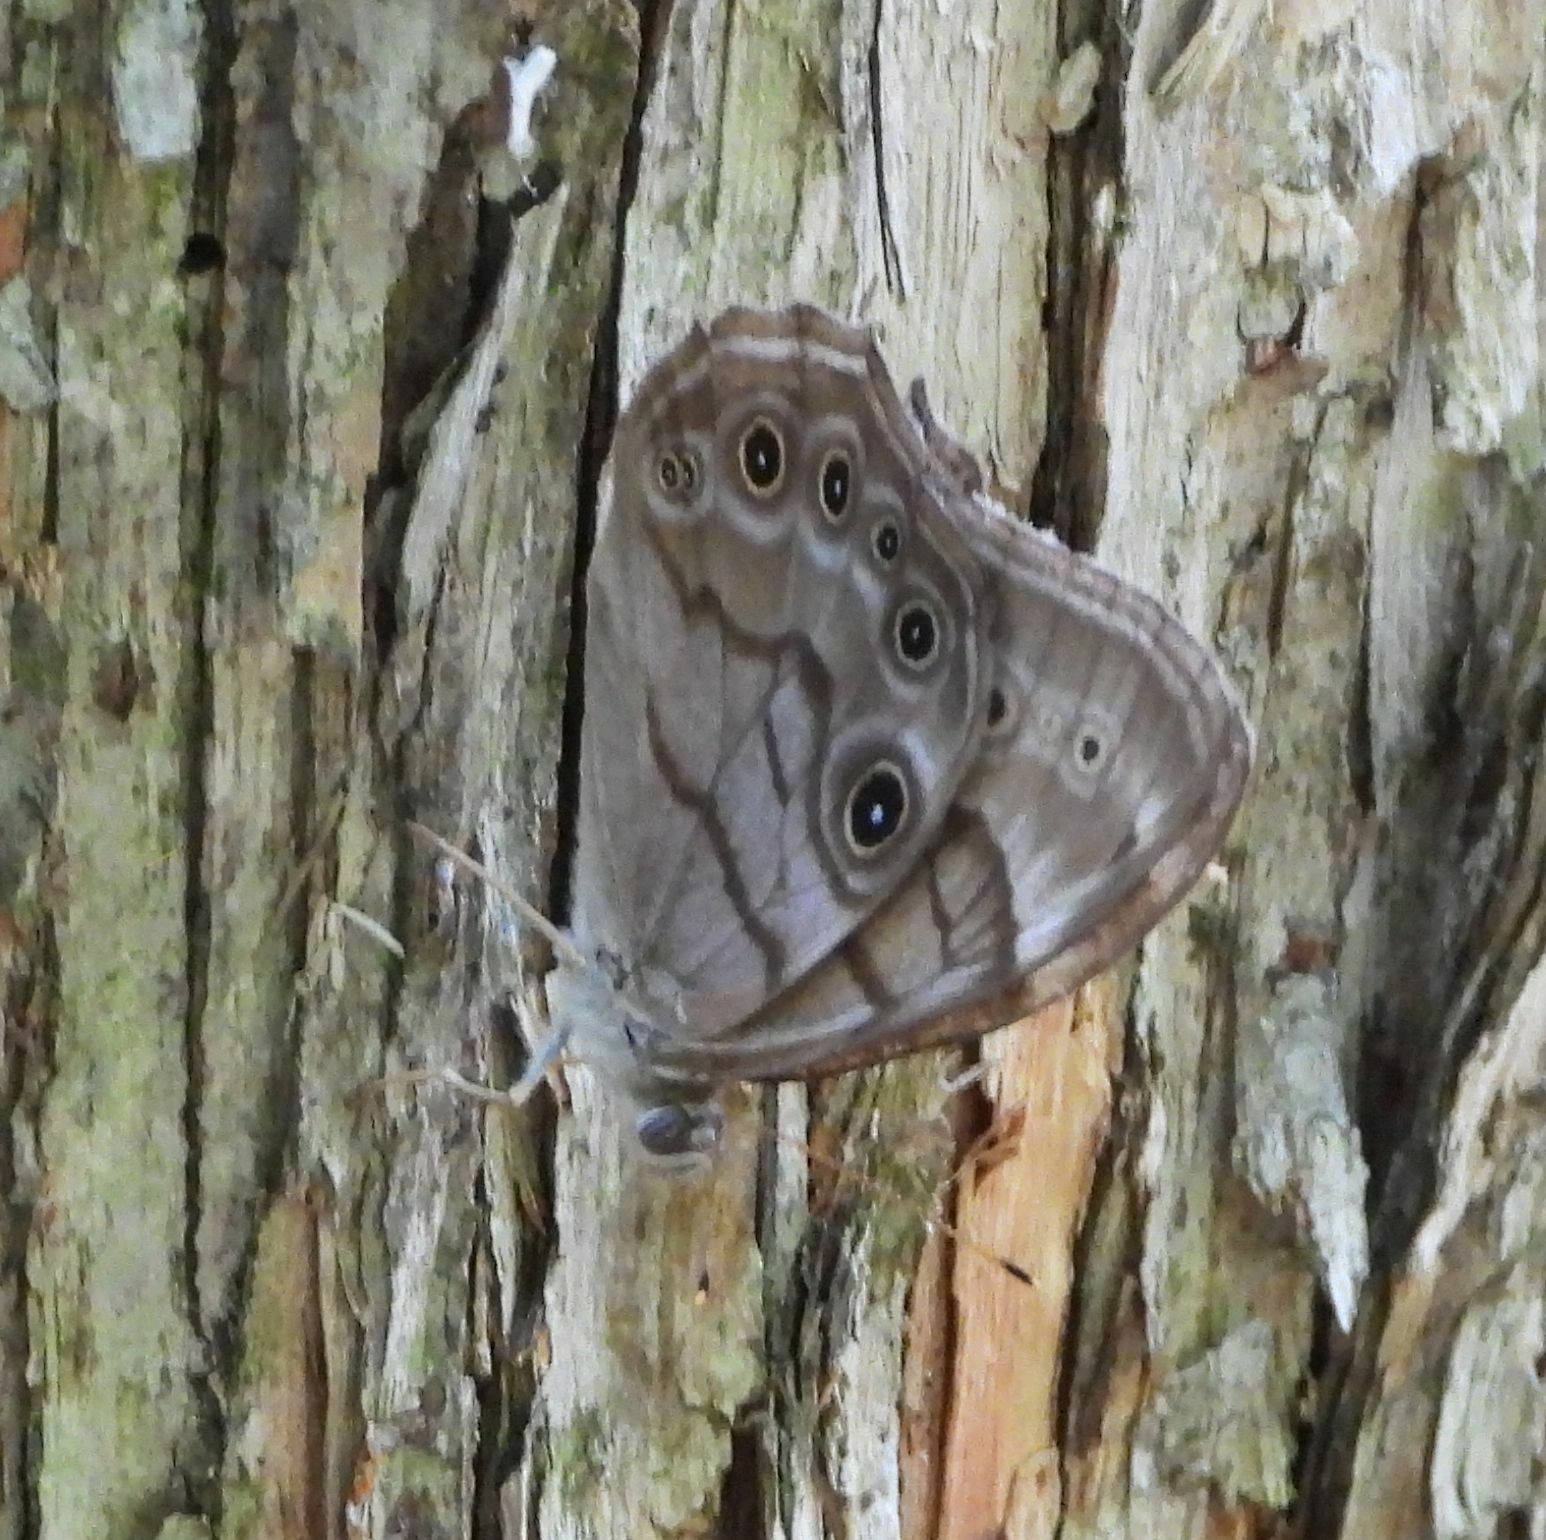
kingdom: Animalia
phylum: Arthropoda
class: Insecta
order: Lepidoptera
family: Nymphalidae
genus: Lethe
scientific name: Lethe anthedon
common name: Northern pearly-eye
